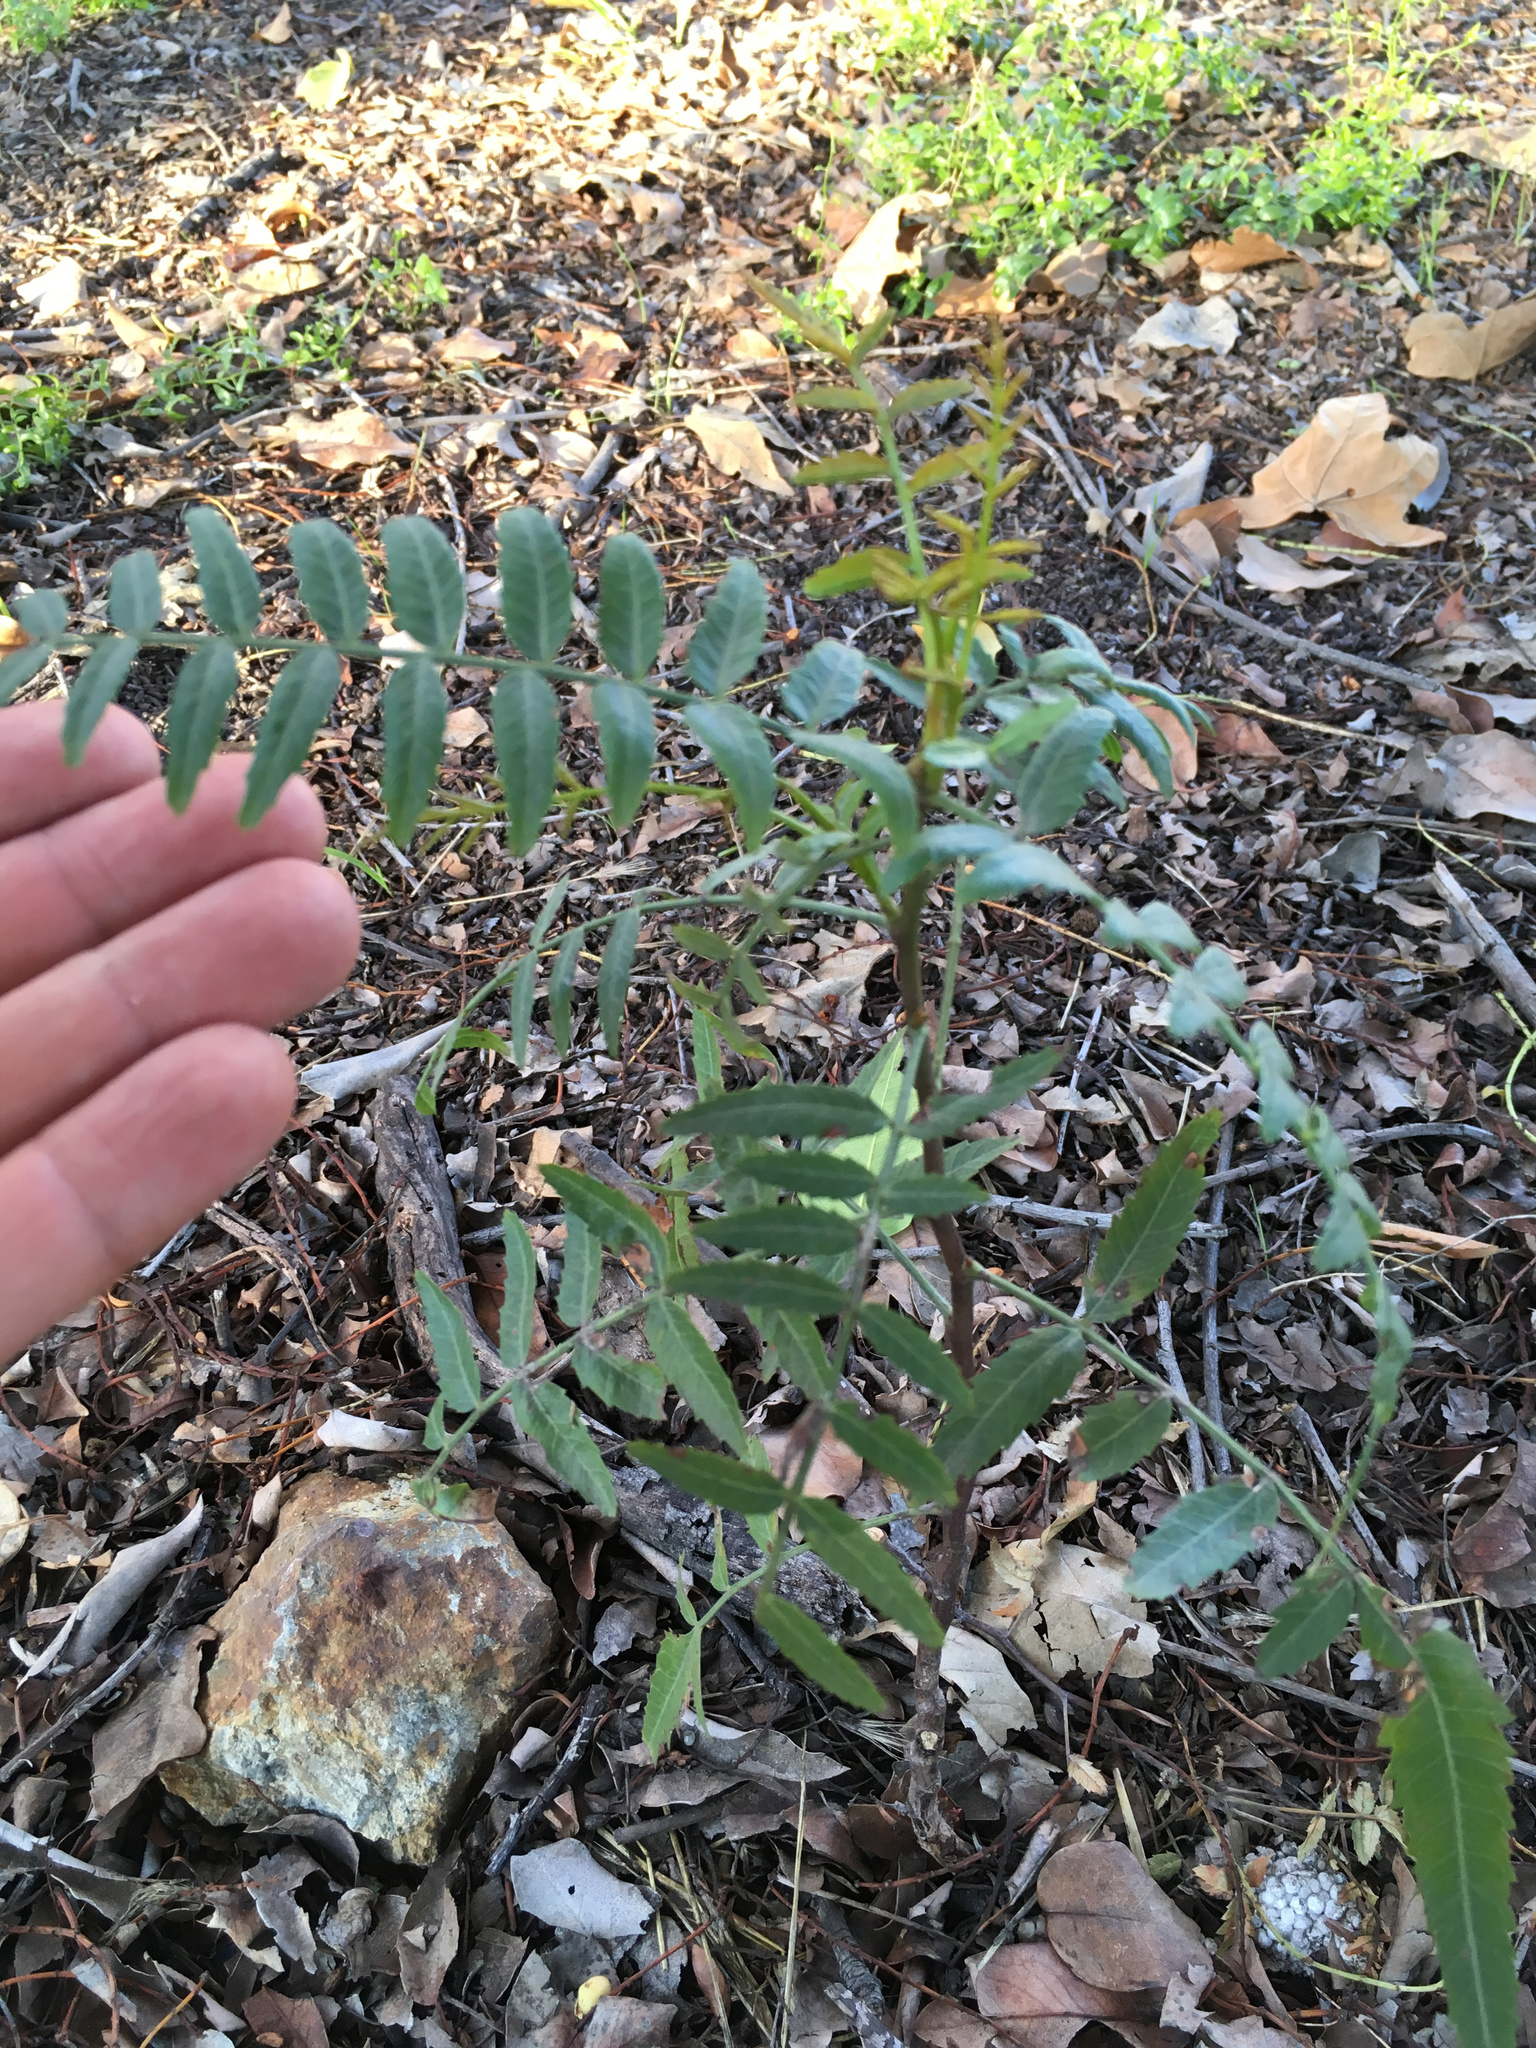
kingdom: Plantae
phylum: Tracheophyta
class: Magnoliopsida
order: Sapindales
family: Anacardiaceae
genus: Schinus
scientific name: Schinus molle
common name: Peruvian peppertree
